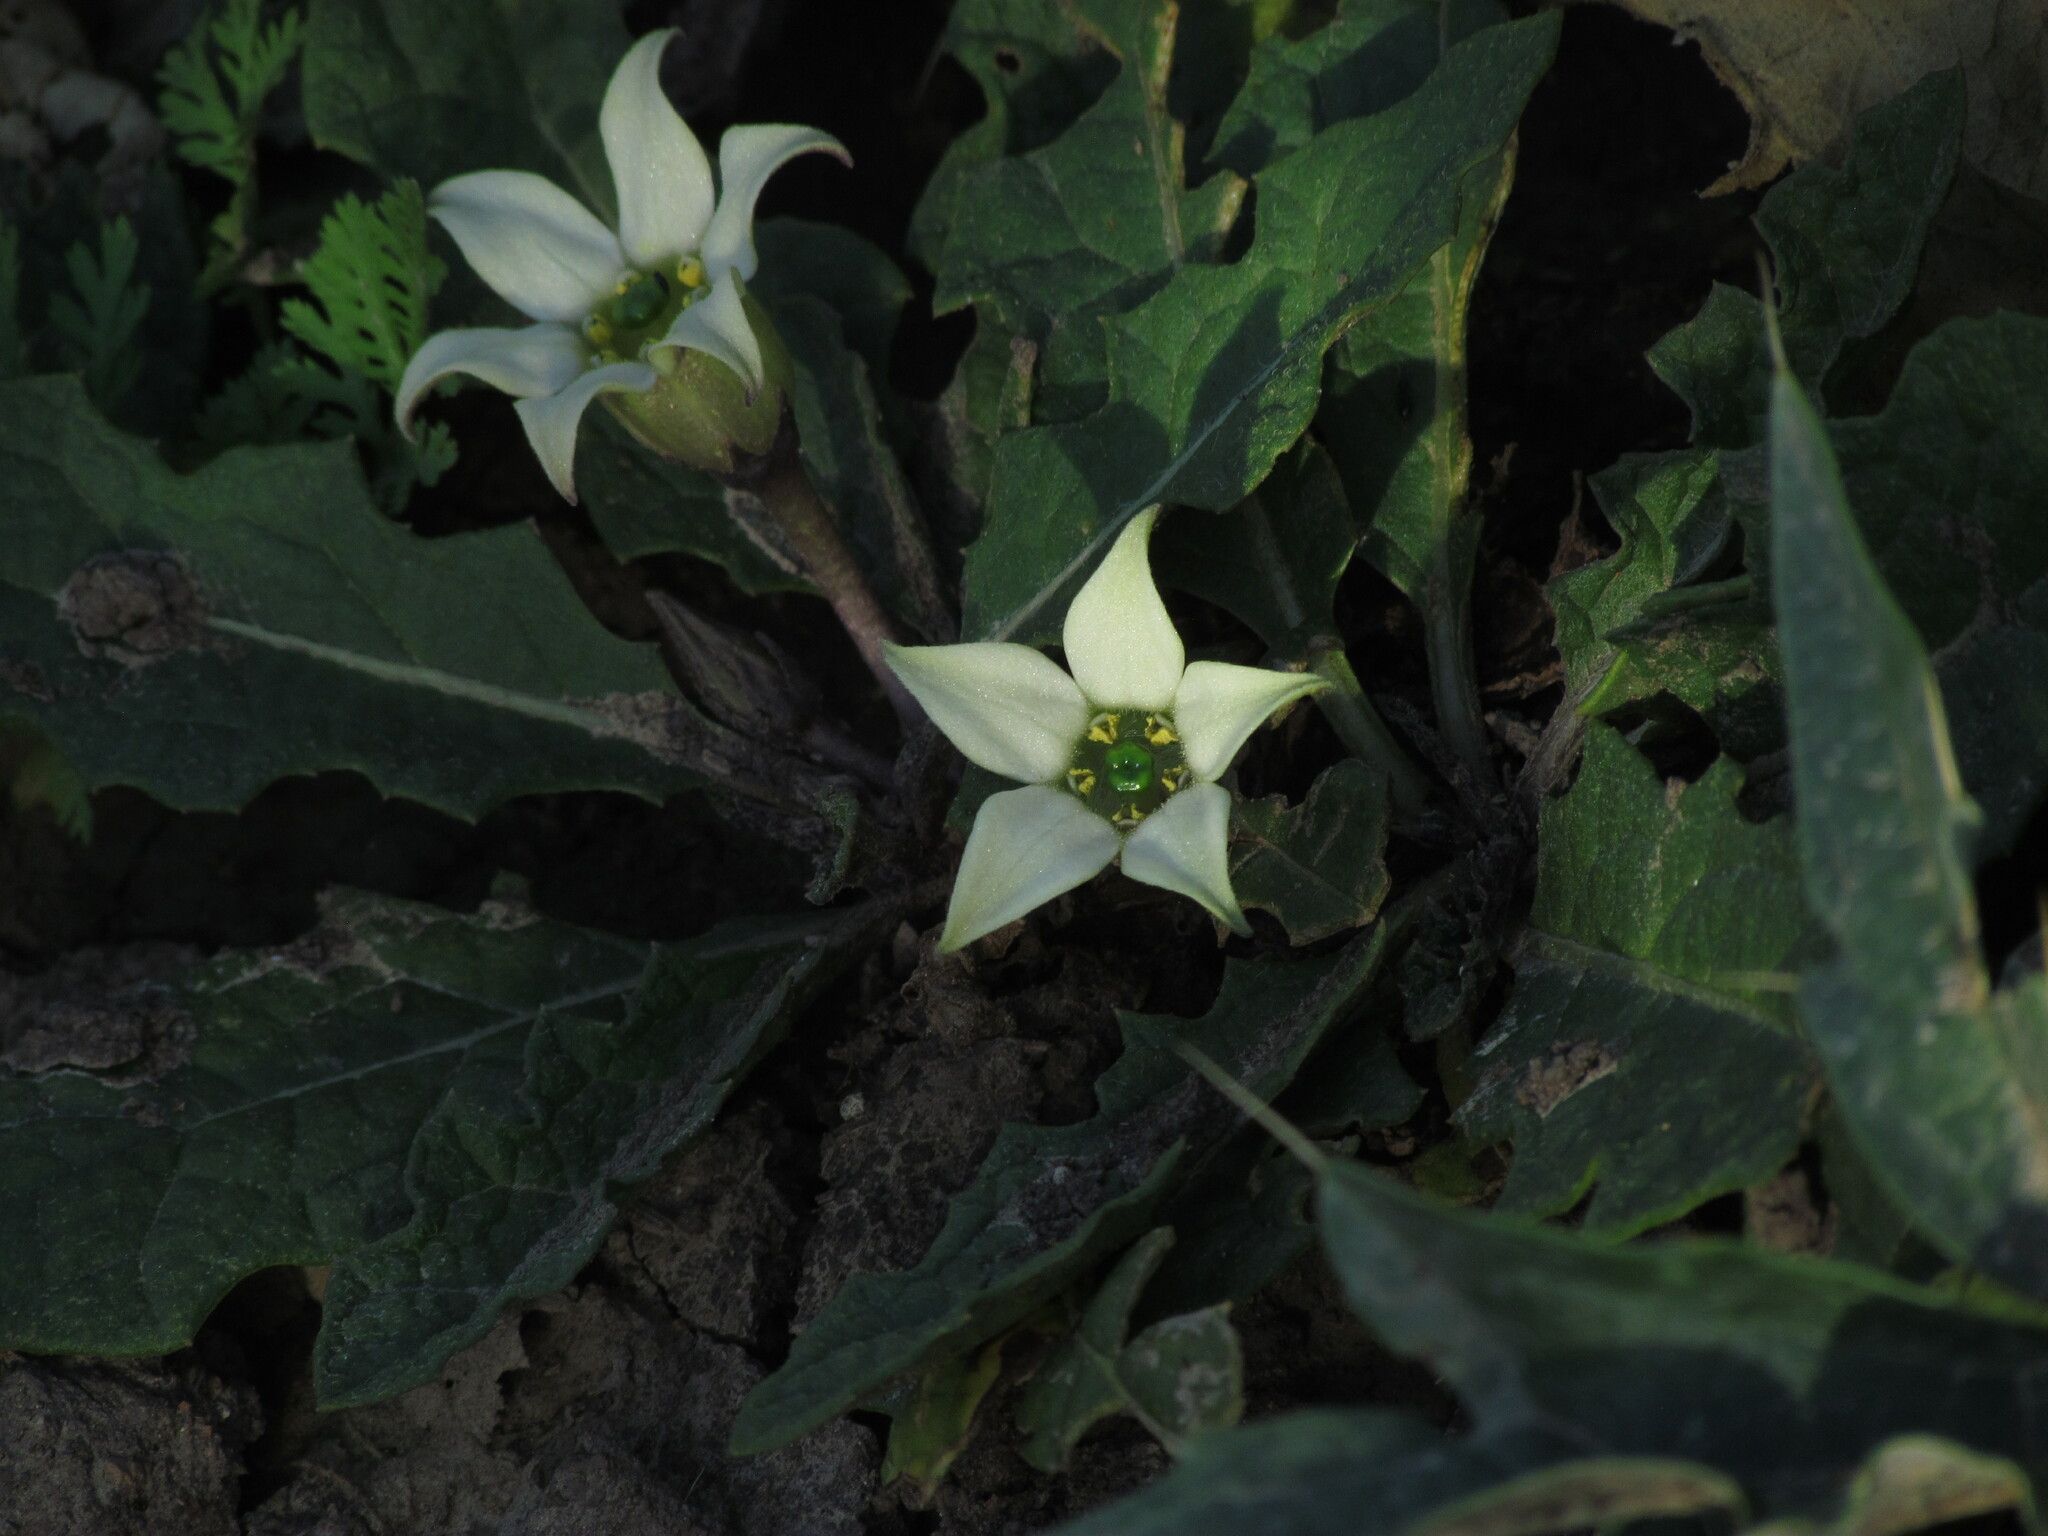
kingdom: Plantae
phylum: Tracheophyta
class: Magnoliopsida
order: Solanales
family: Solanaceae
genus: Jaborosa
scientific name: Jaborosa runcinata
